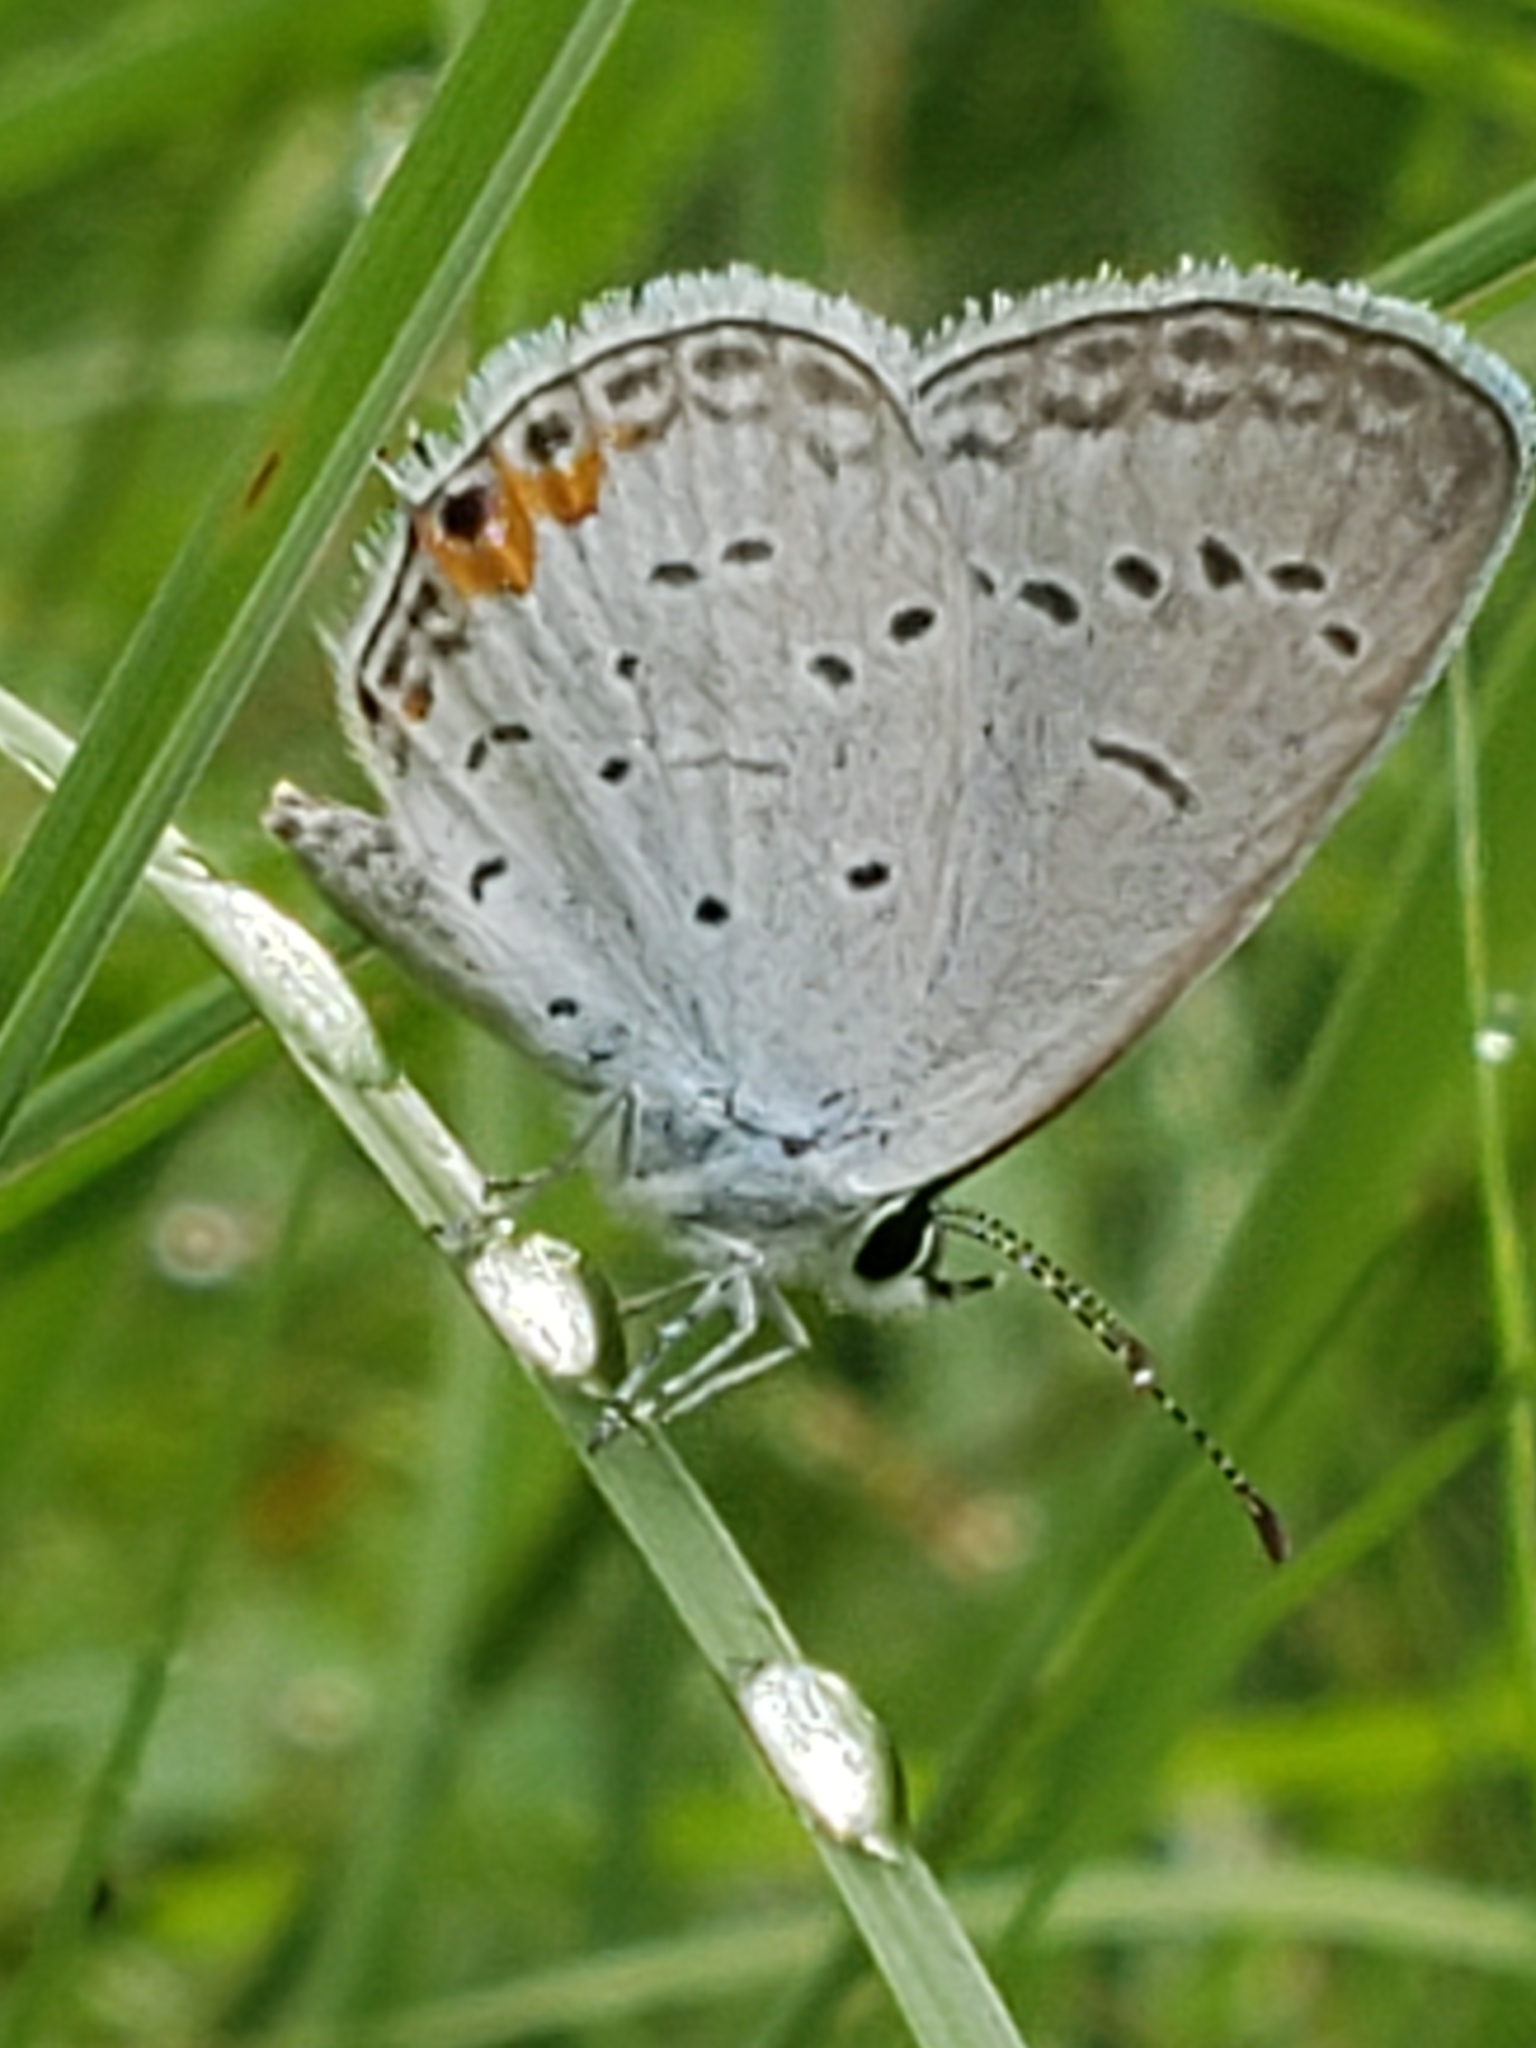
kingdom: Animalia
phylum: Arthropoda
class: Insecta
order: Lepidoptera
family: Lycaenidae
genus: Elkalyce
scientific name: Elkalyce comyntas
